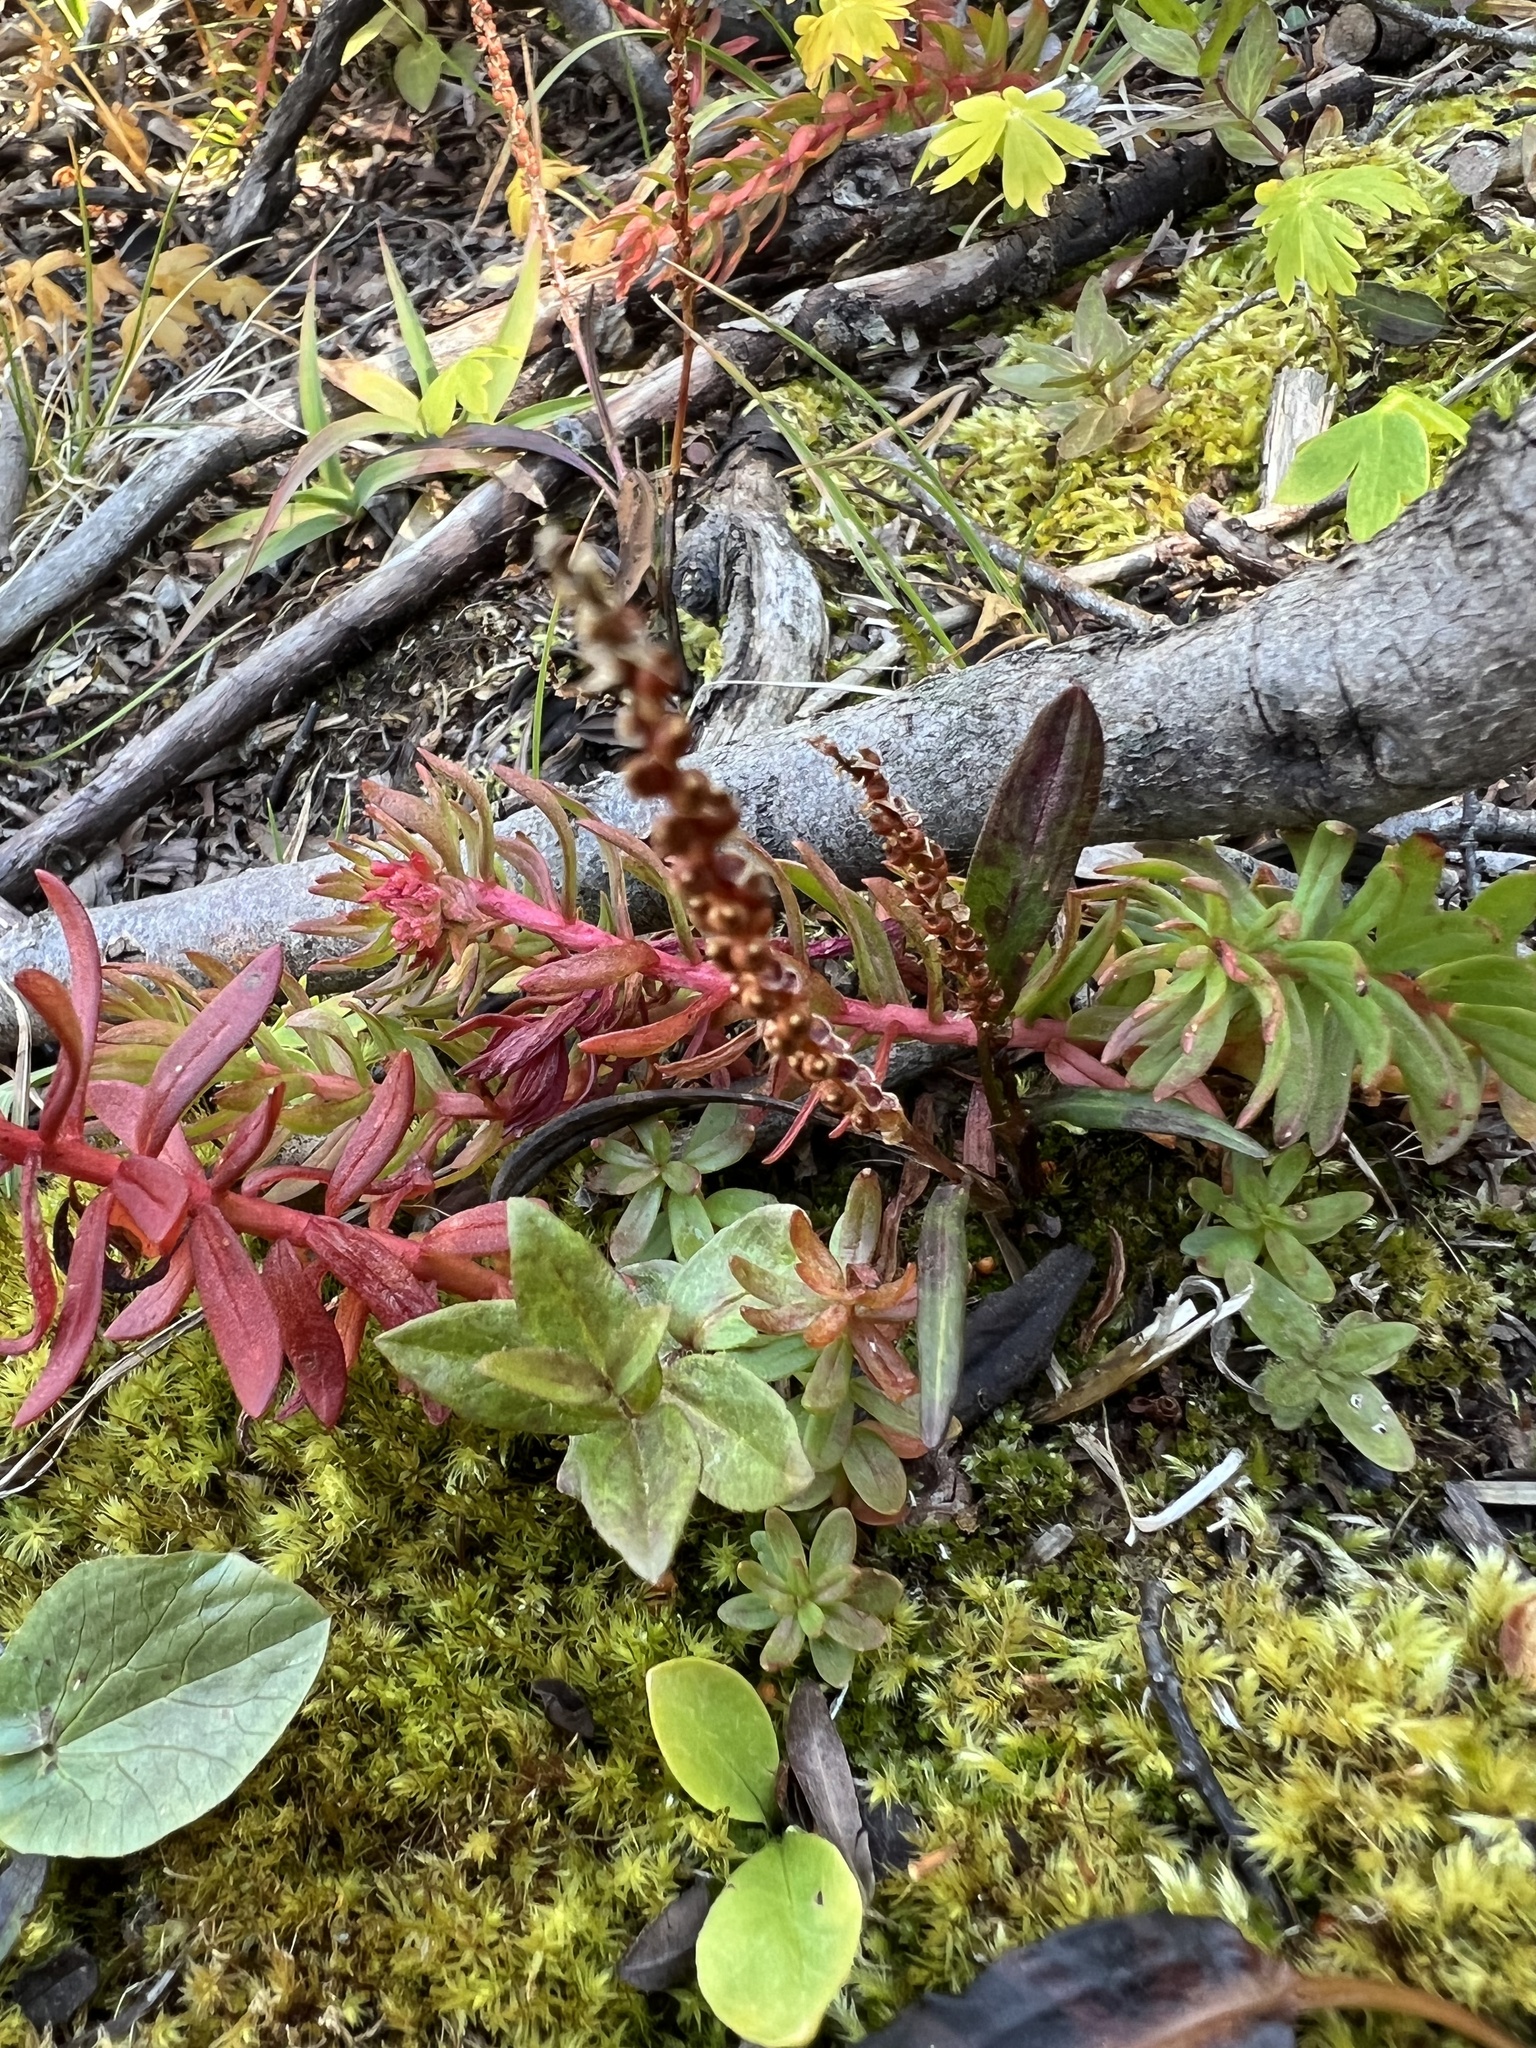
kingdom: Plantae
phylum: Tracheophyta
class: Magnoliopsida
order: Caryophyllales
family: Polygonaceae
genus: Bistorta
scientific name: Bistorta vivipara
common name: Alpine bistort
